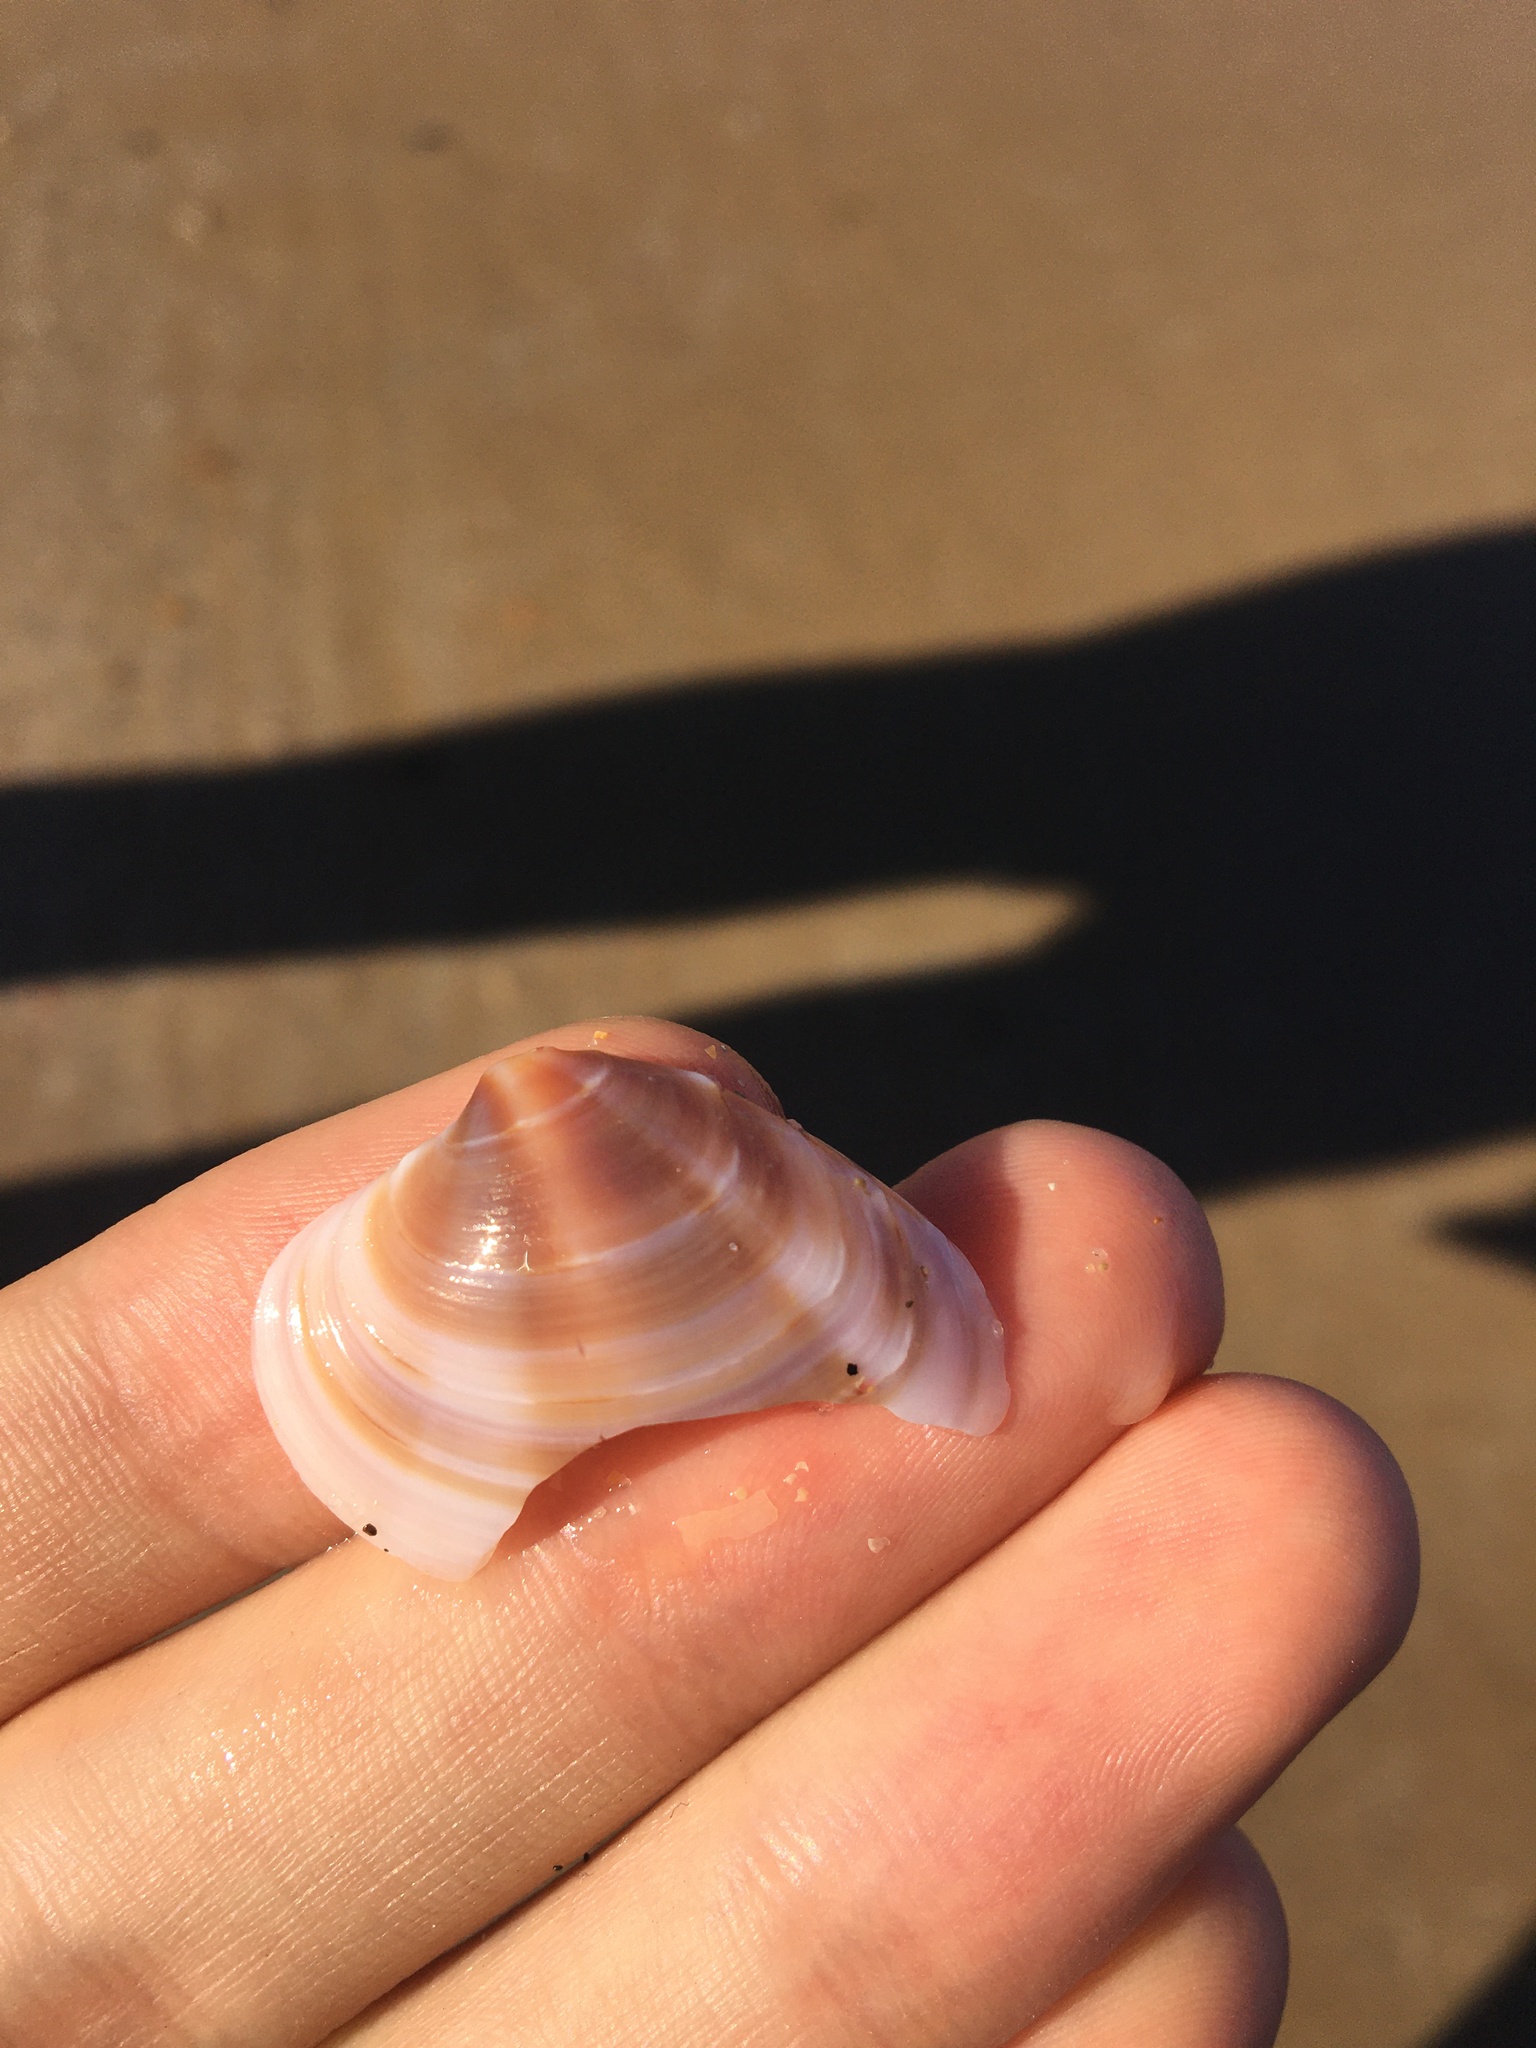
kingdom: Animalia
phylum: Mollusca
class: Bivalvia
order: Venerida
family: Veneridae
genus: Bassina
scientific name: Bassina jacksonii
